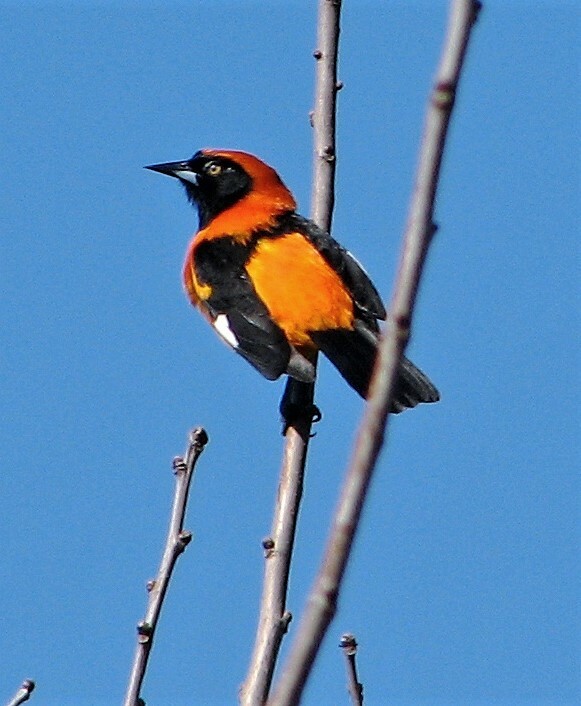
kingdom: Animalia
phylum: Chordata
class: Aves
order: Passeriformes
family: Icteridae
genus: Icterus
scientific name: Icterus icterus
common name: Venezuelan troupial
